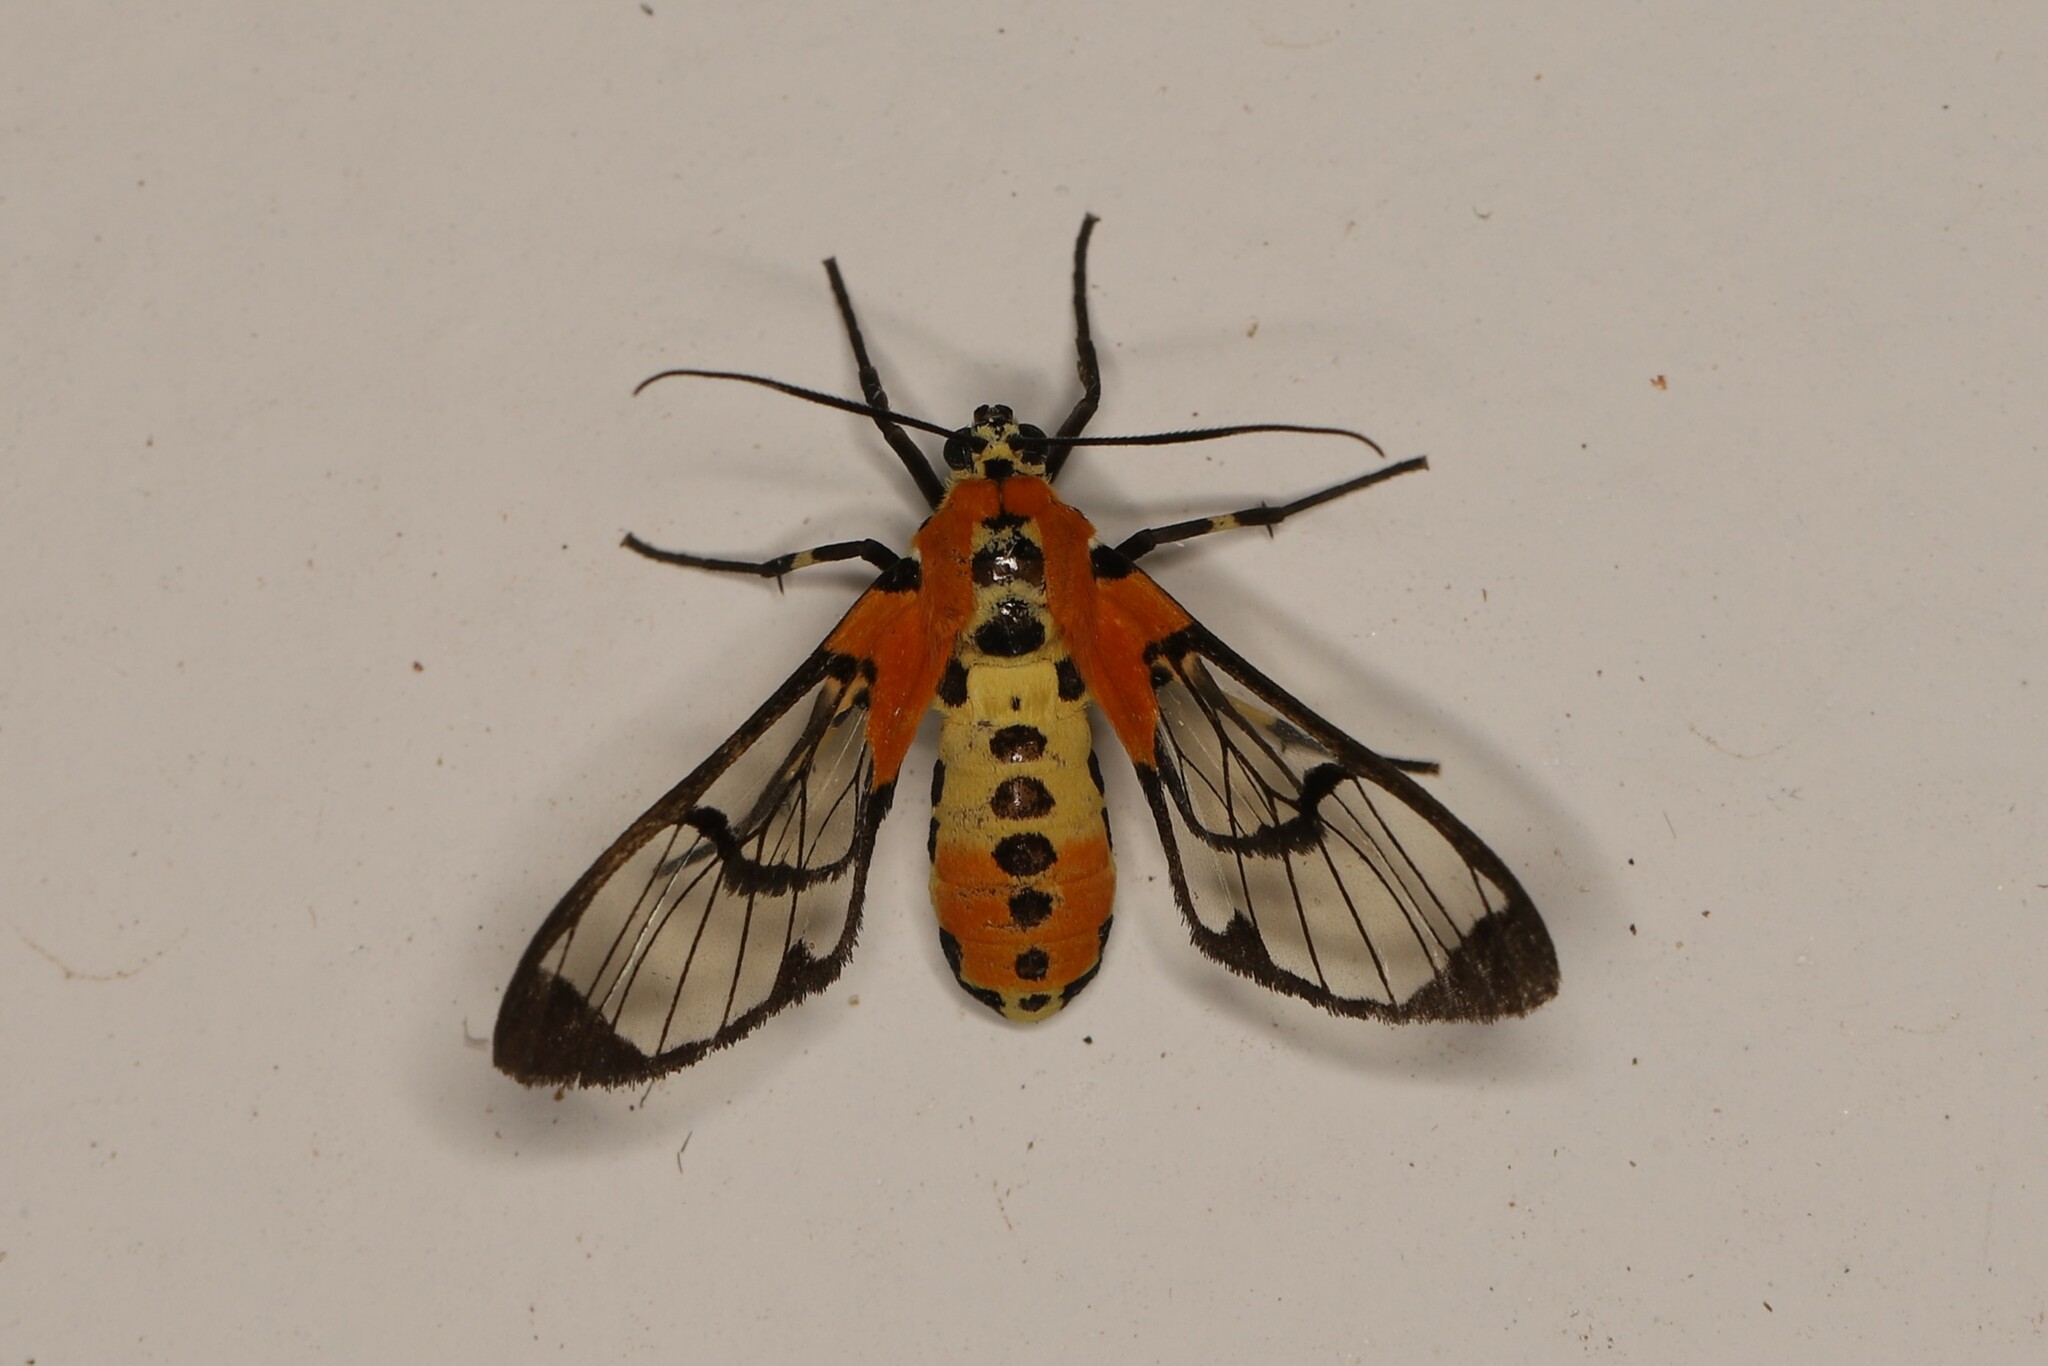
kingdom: Animalia
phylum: Arthropoda
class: Insecta
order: Lepidoptera
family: Erebidae
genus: Hyalomis
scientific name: Hyalomis basilutea
